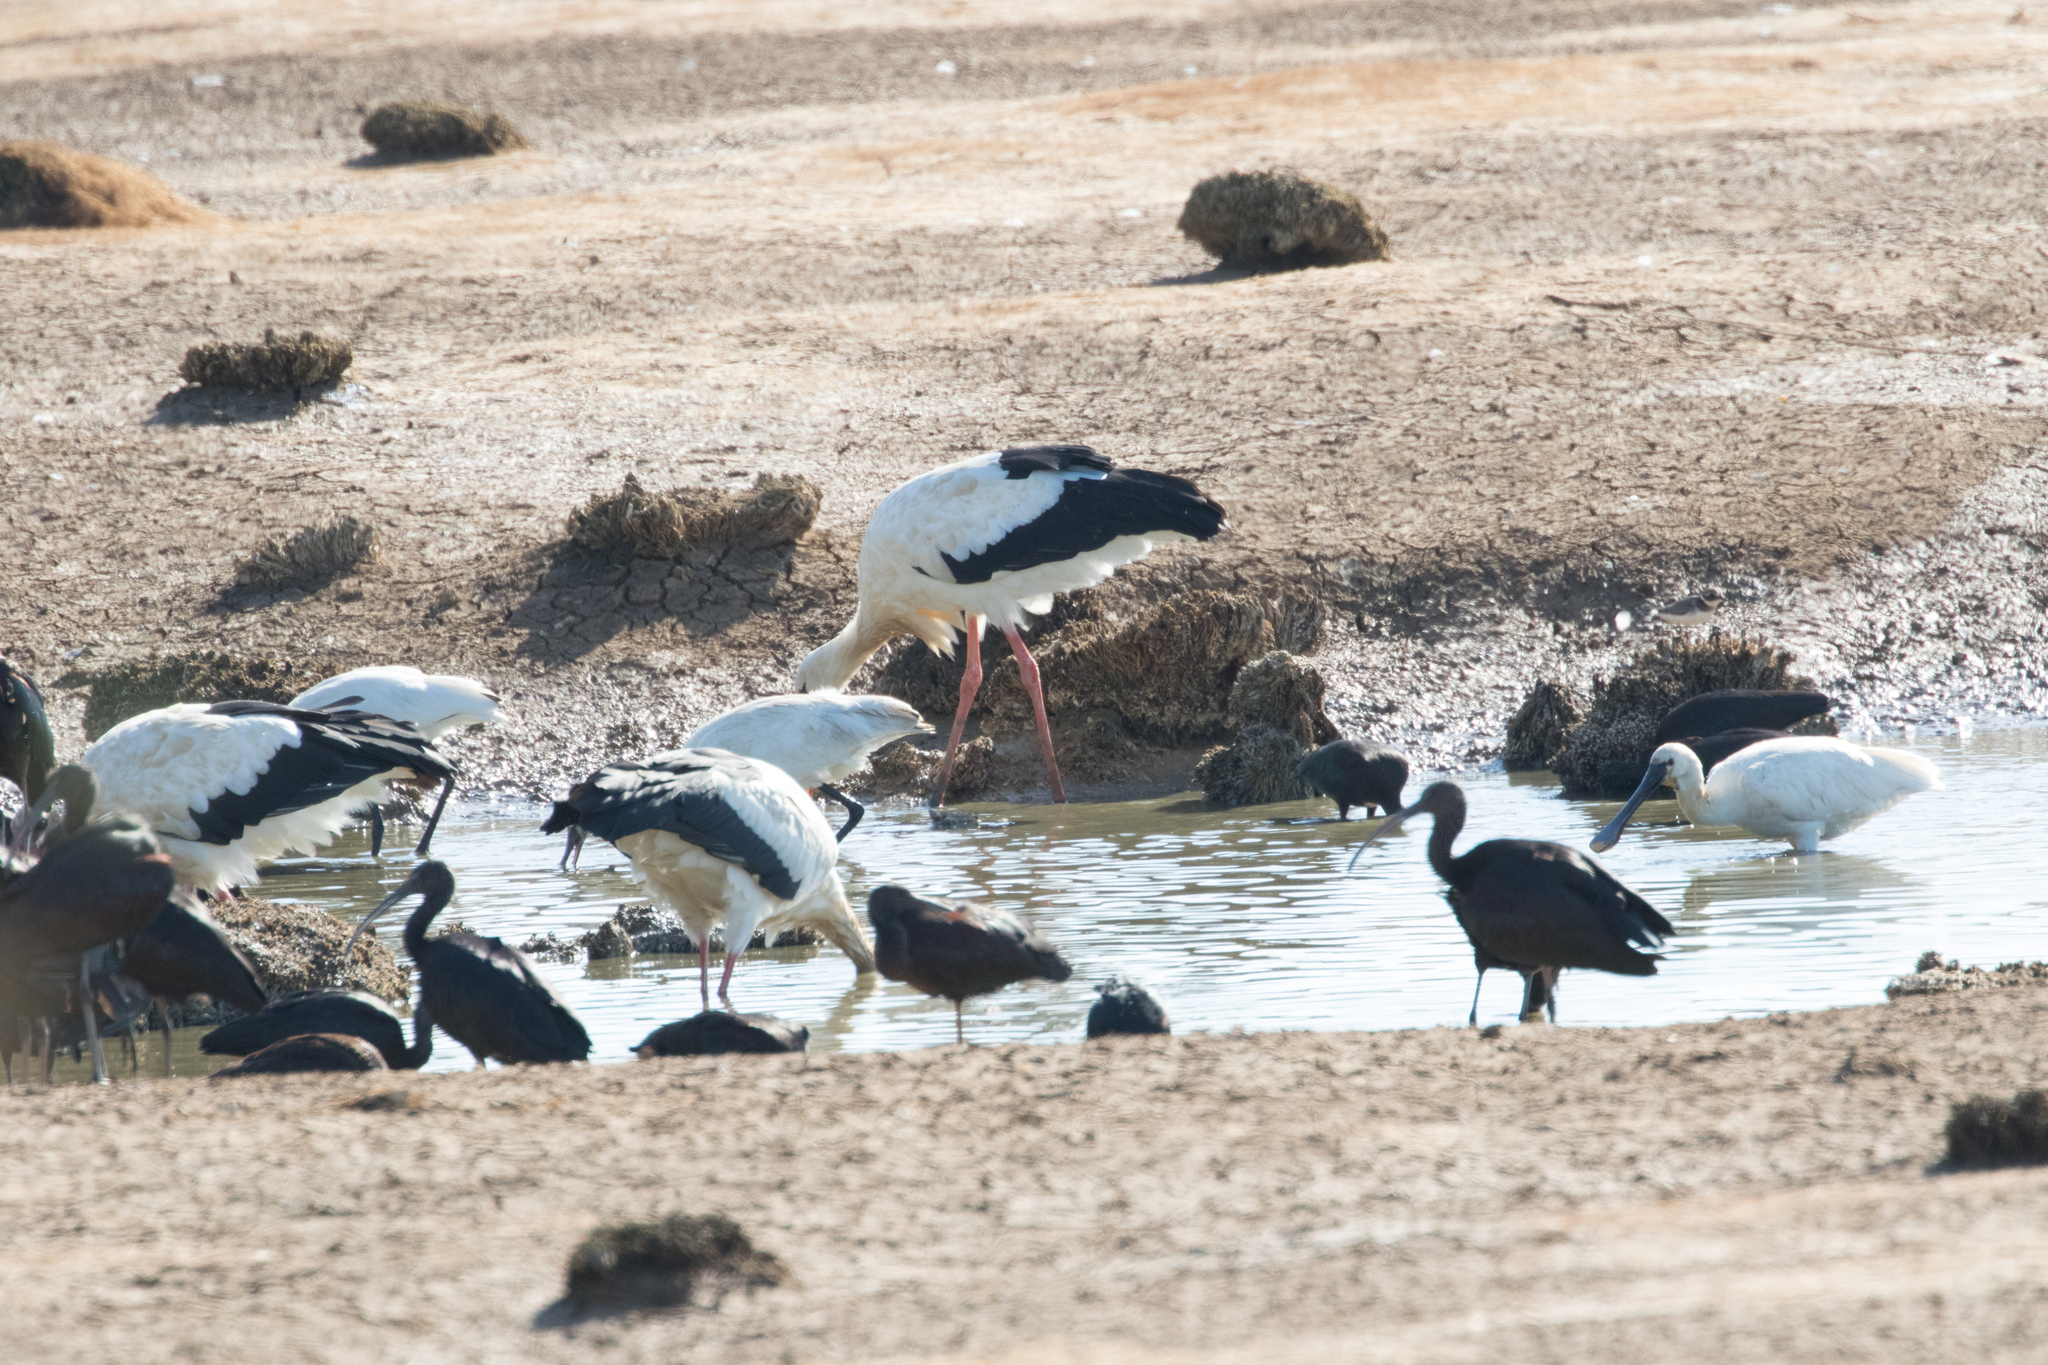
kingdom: Animalia
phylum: Chordata
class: Aves
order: Ciconiiformes
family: Ciconiidae
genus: Ciconia
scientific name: Ciconia ciconia
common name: White stork
